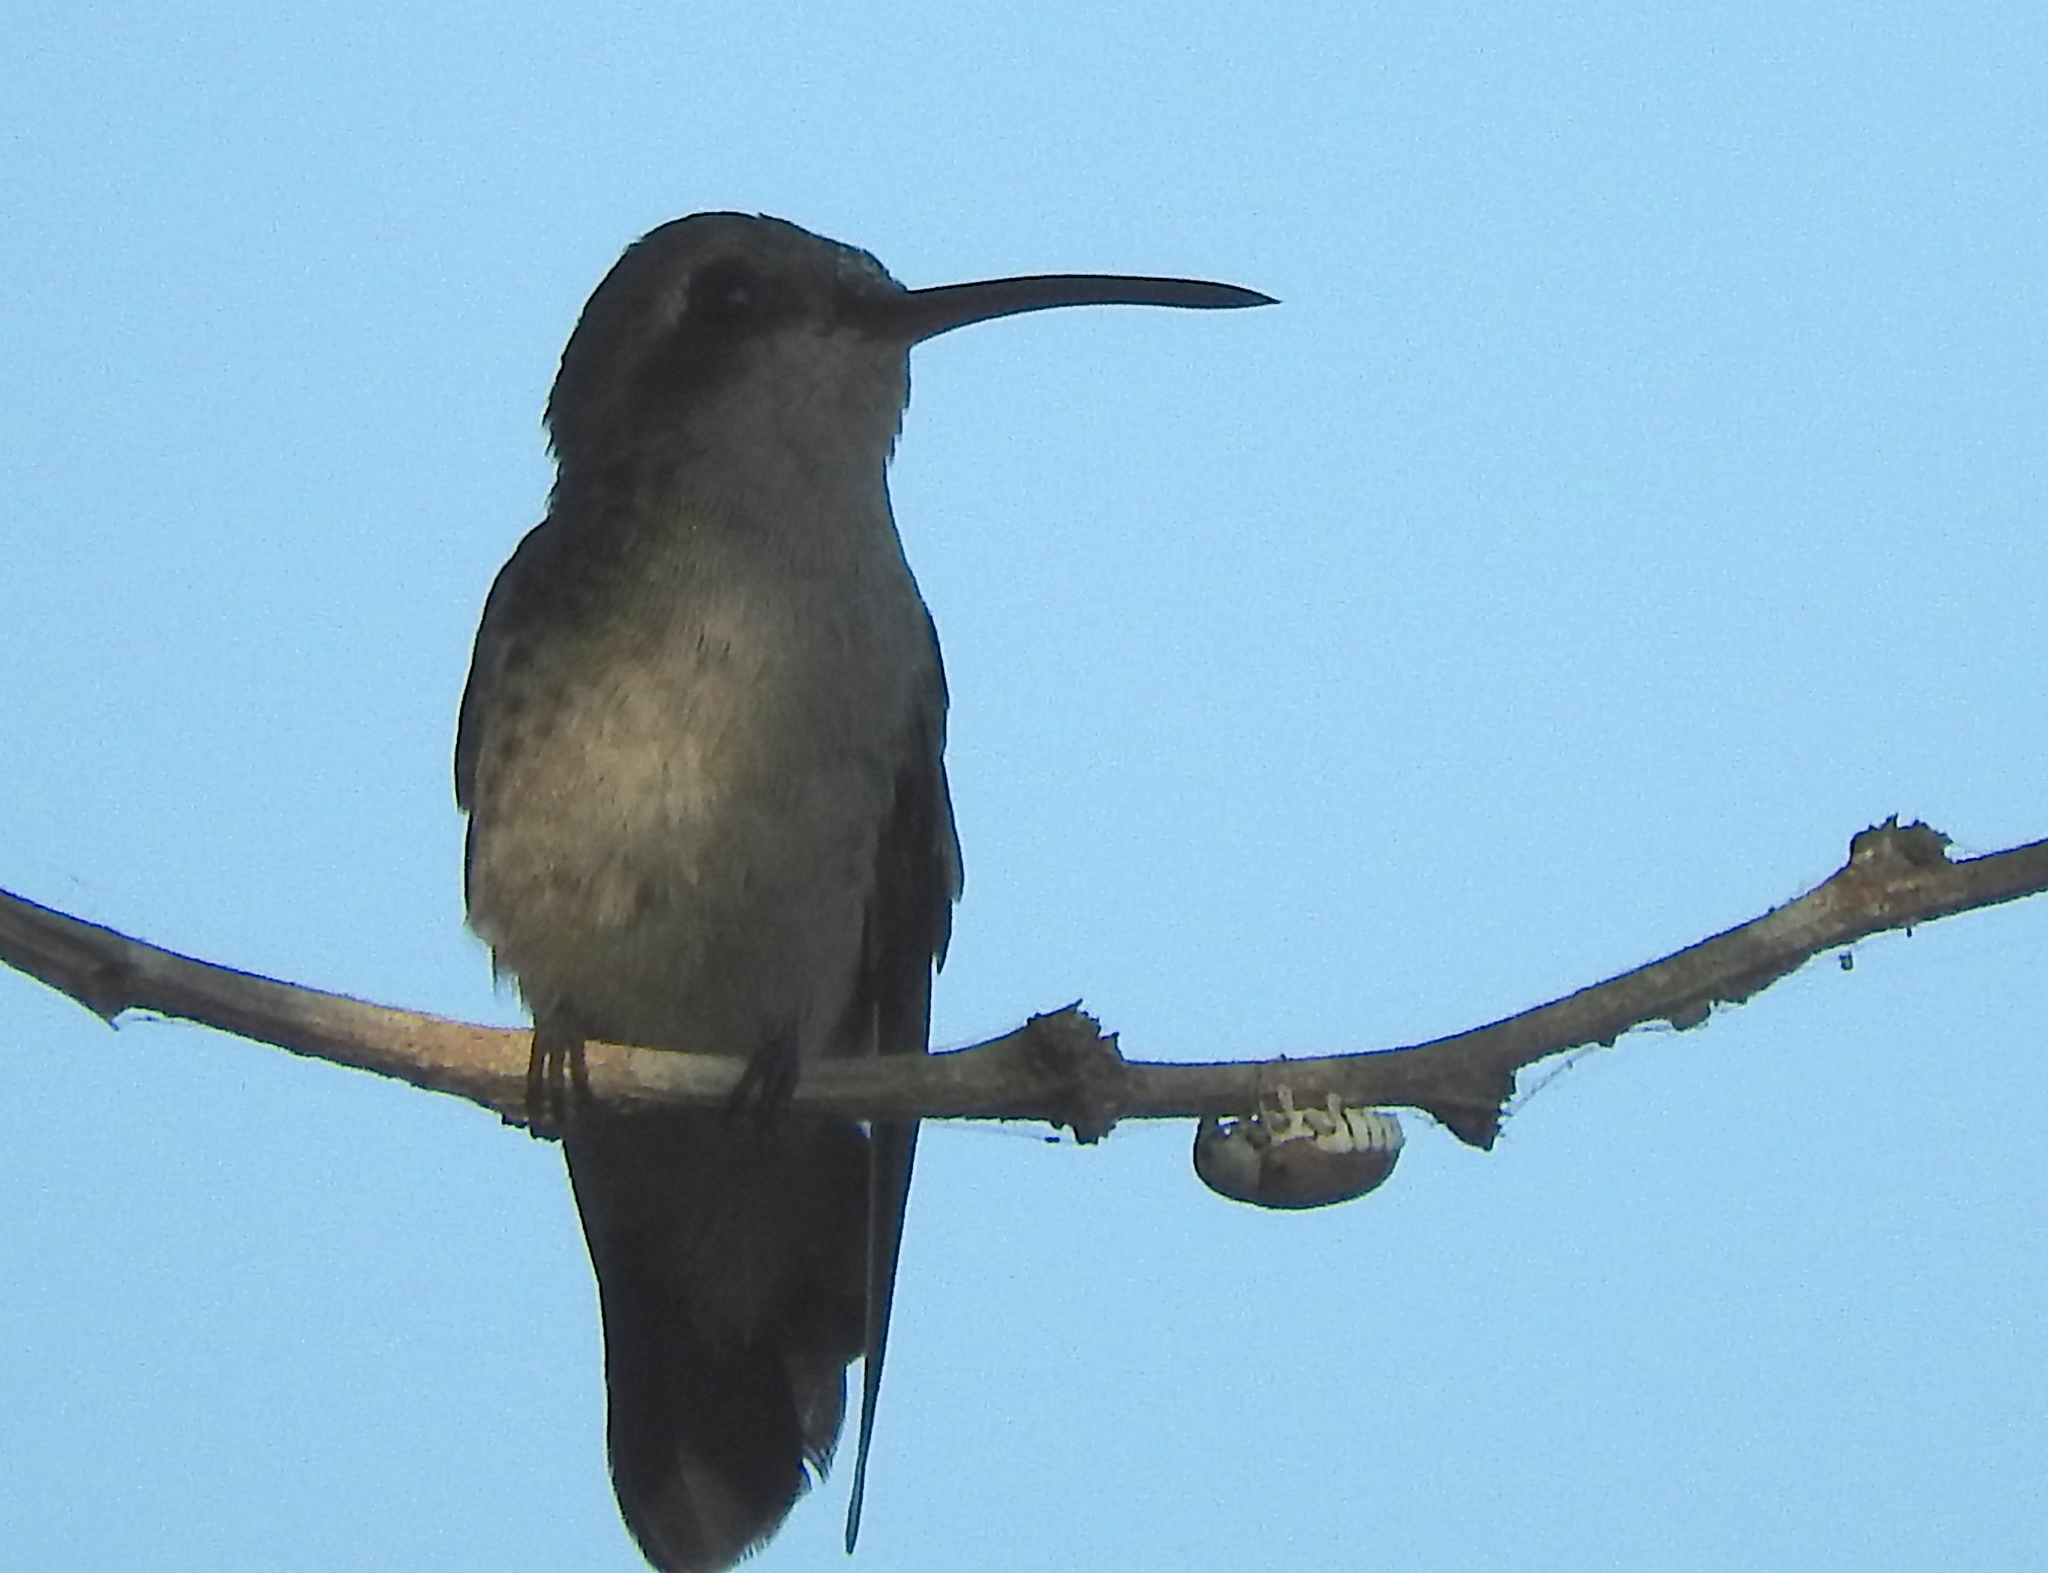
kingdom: Animalia
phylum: Chordata
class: Aves
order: Apodiformes
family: Trochilidae
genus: Cynanthus
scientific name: Cynanthus latirostris
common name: Broad-billed hummingbird
